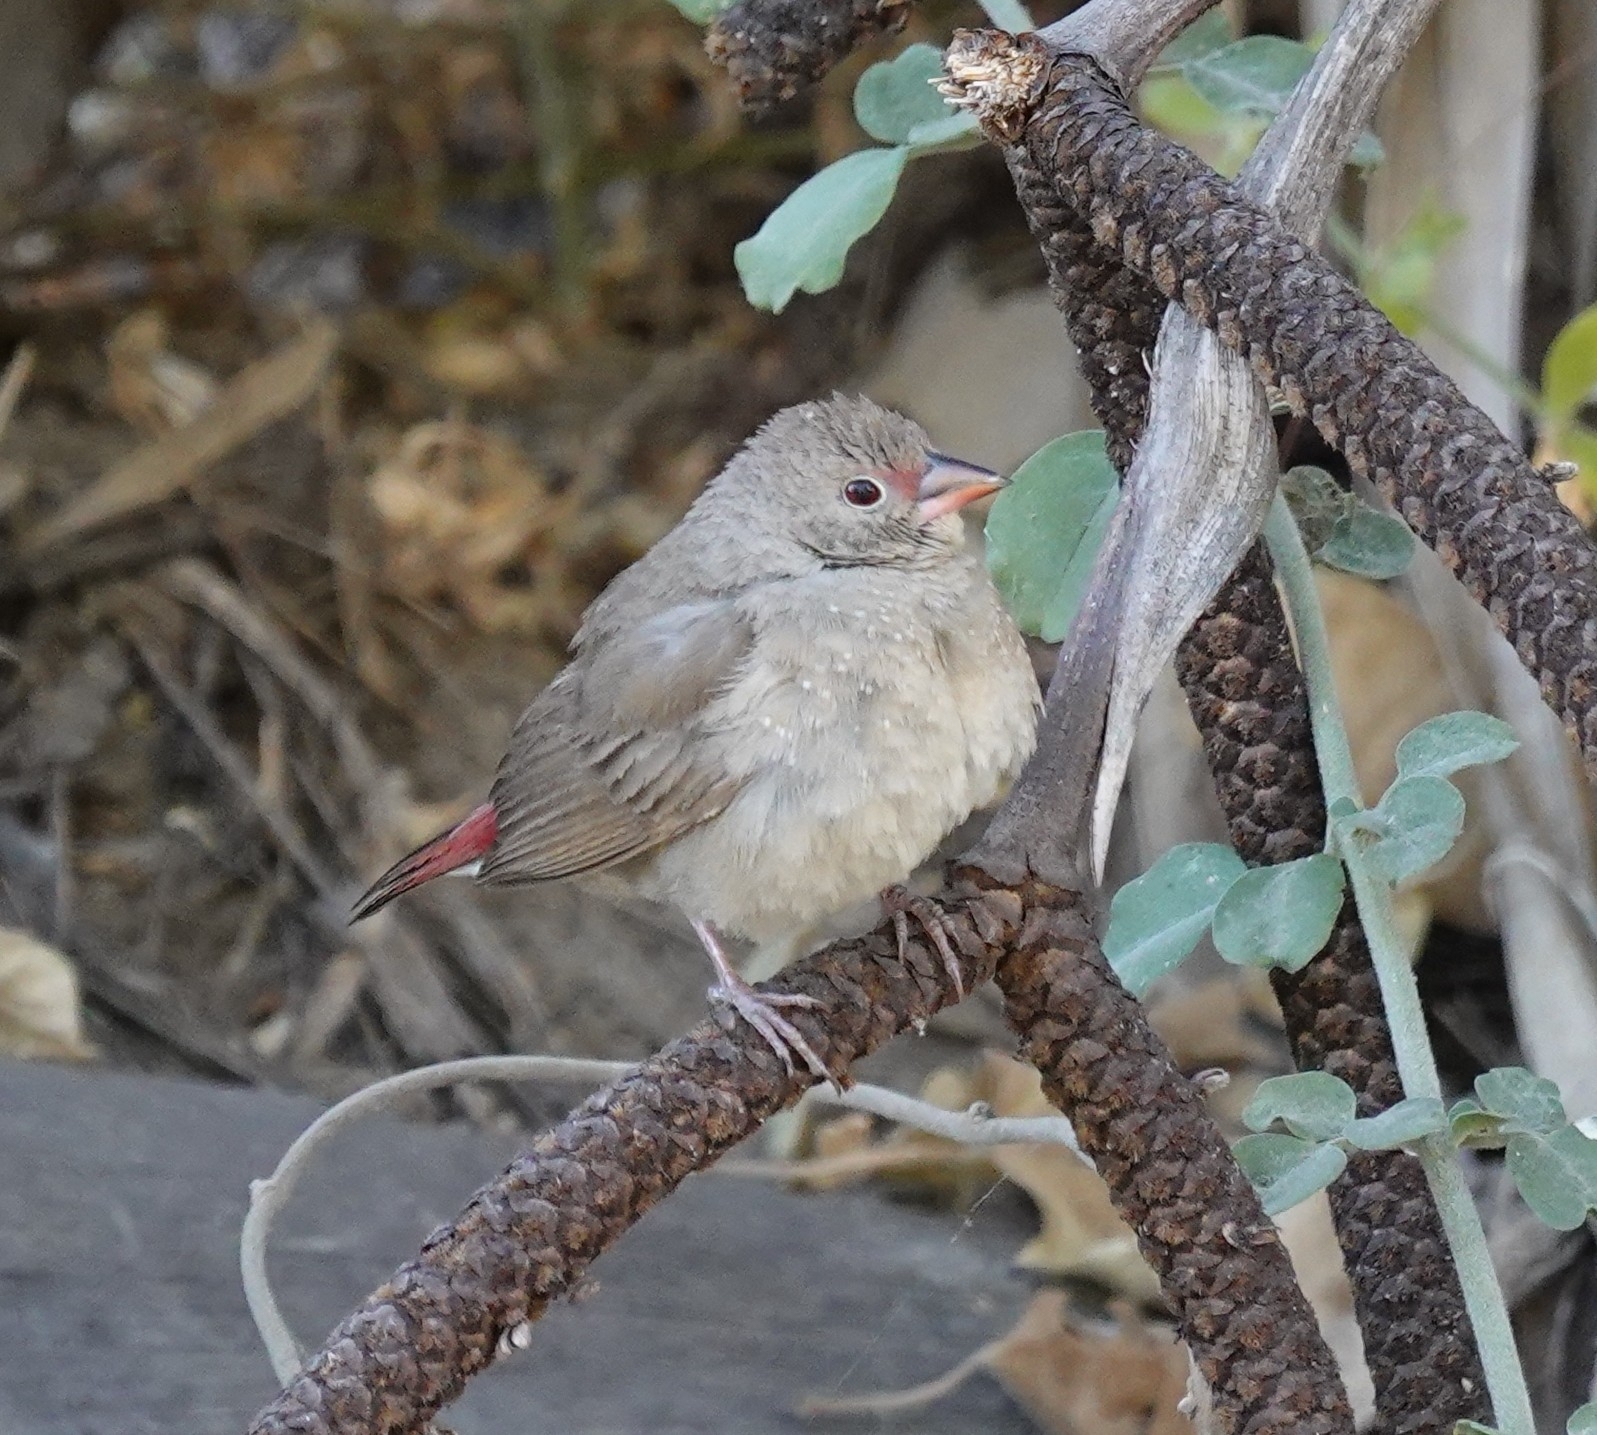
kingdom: Animalia
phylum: Chordata
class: Aves
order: Passeriformes
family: Estrildidae
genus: Lagonosticta
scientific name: Lagonosticta senegala
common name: Red-billed firefinch
